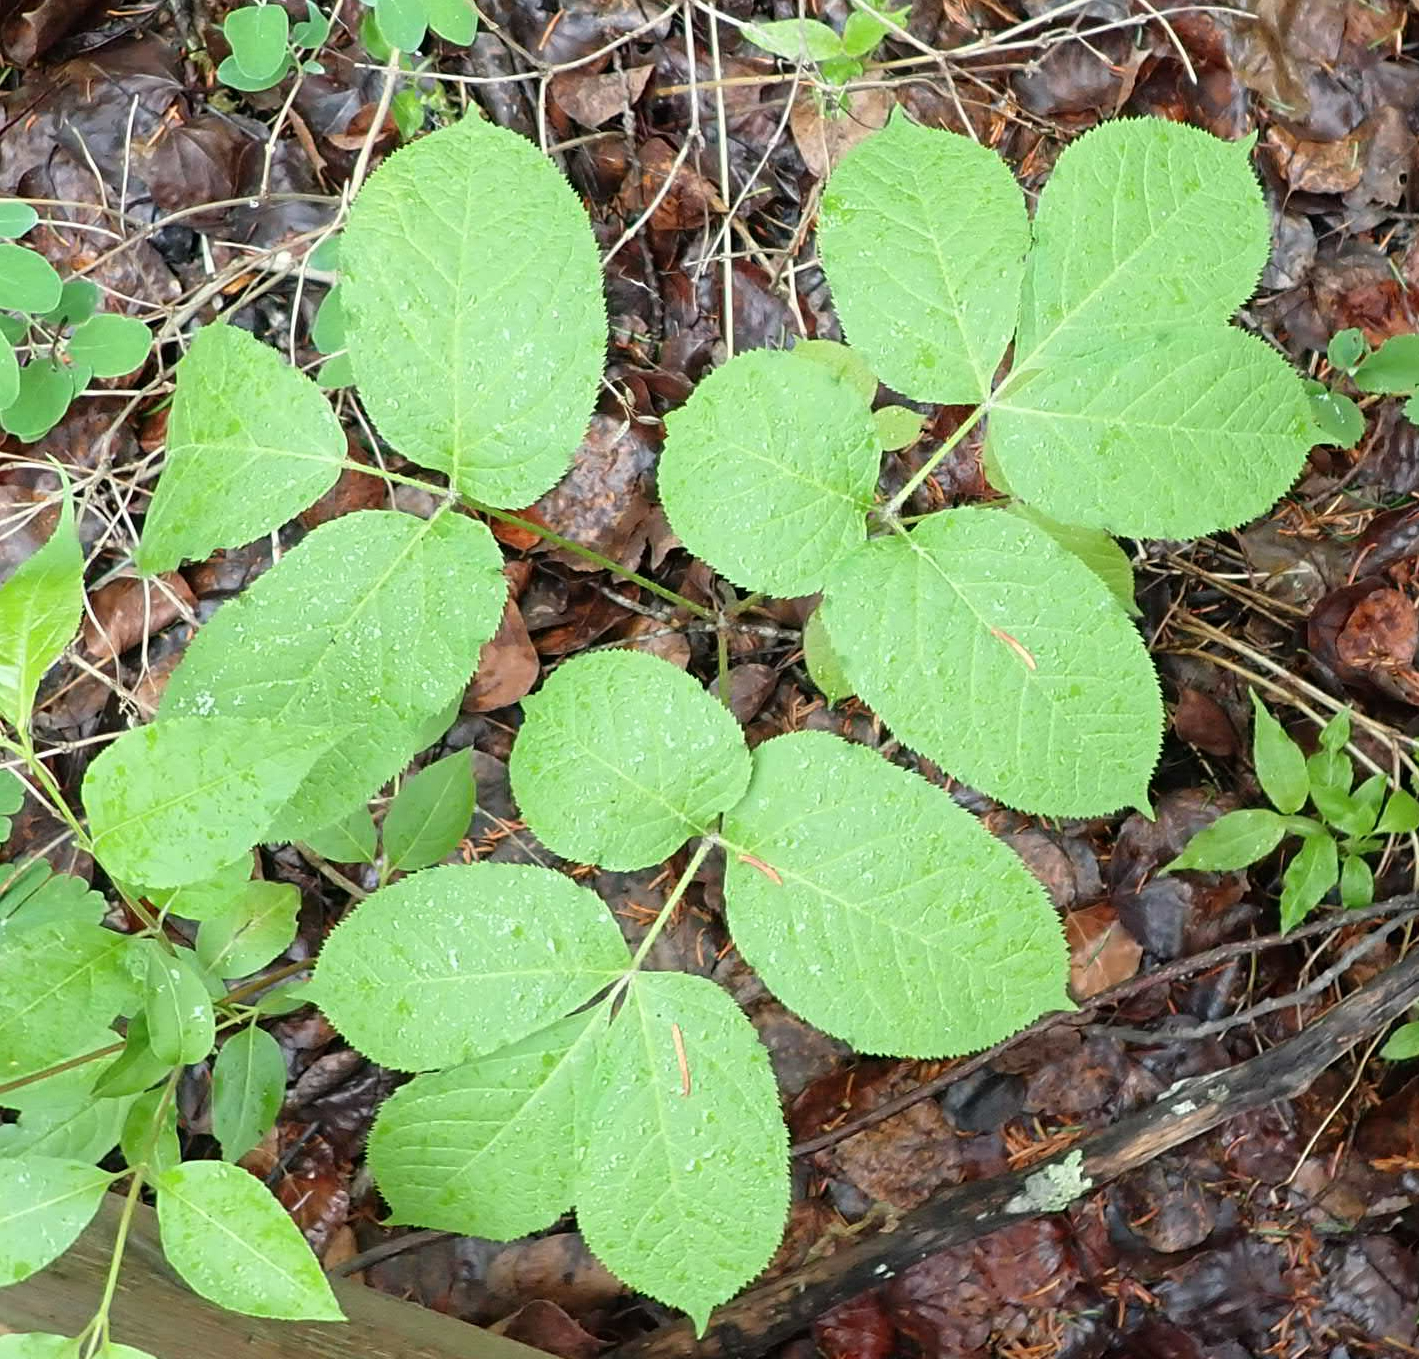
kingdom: Plantae
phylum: Tracheophyta
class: Magnoliopsida
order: Apiales
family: Araliaceae
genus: Aralia
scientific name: Aralia nudicaulis
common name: Wild sarsaparilla
